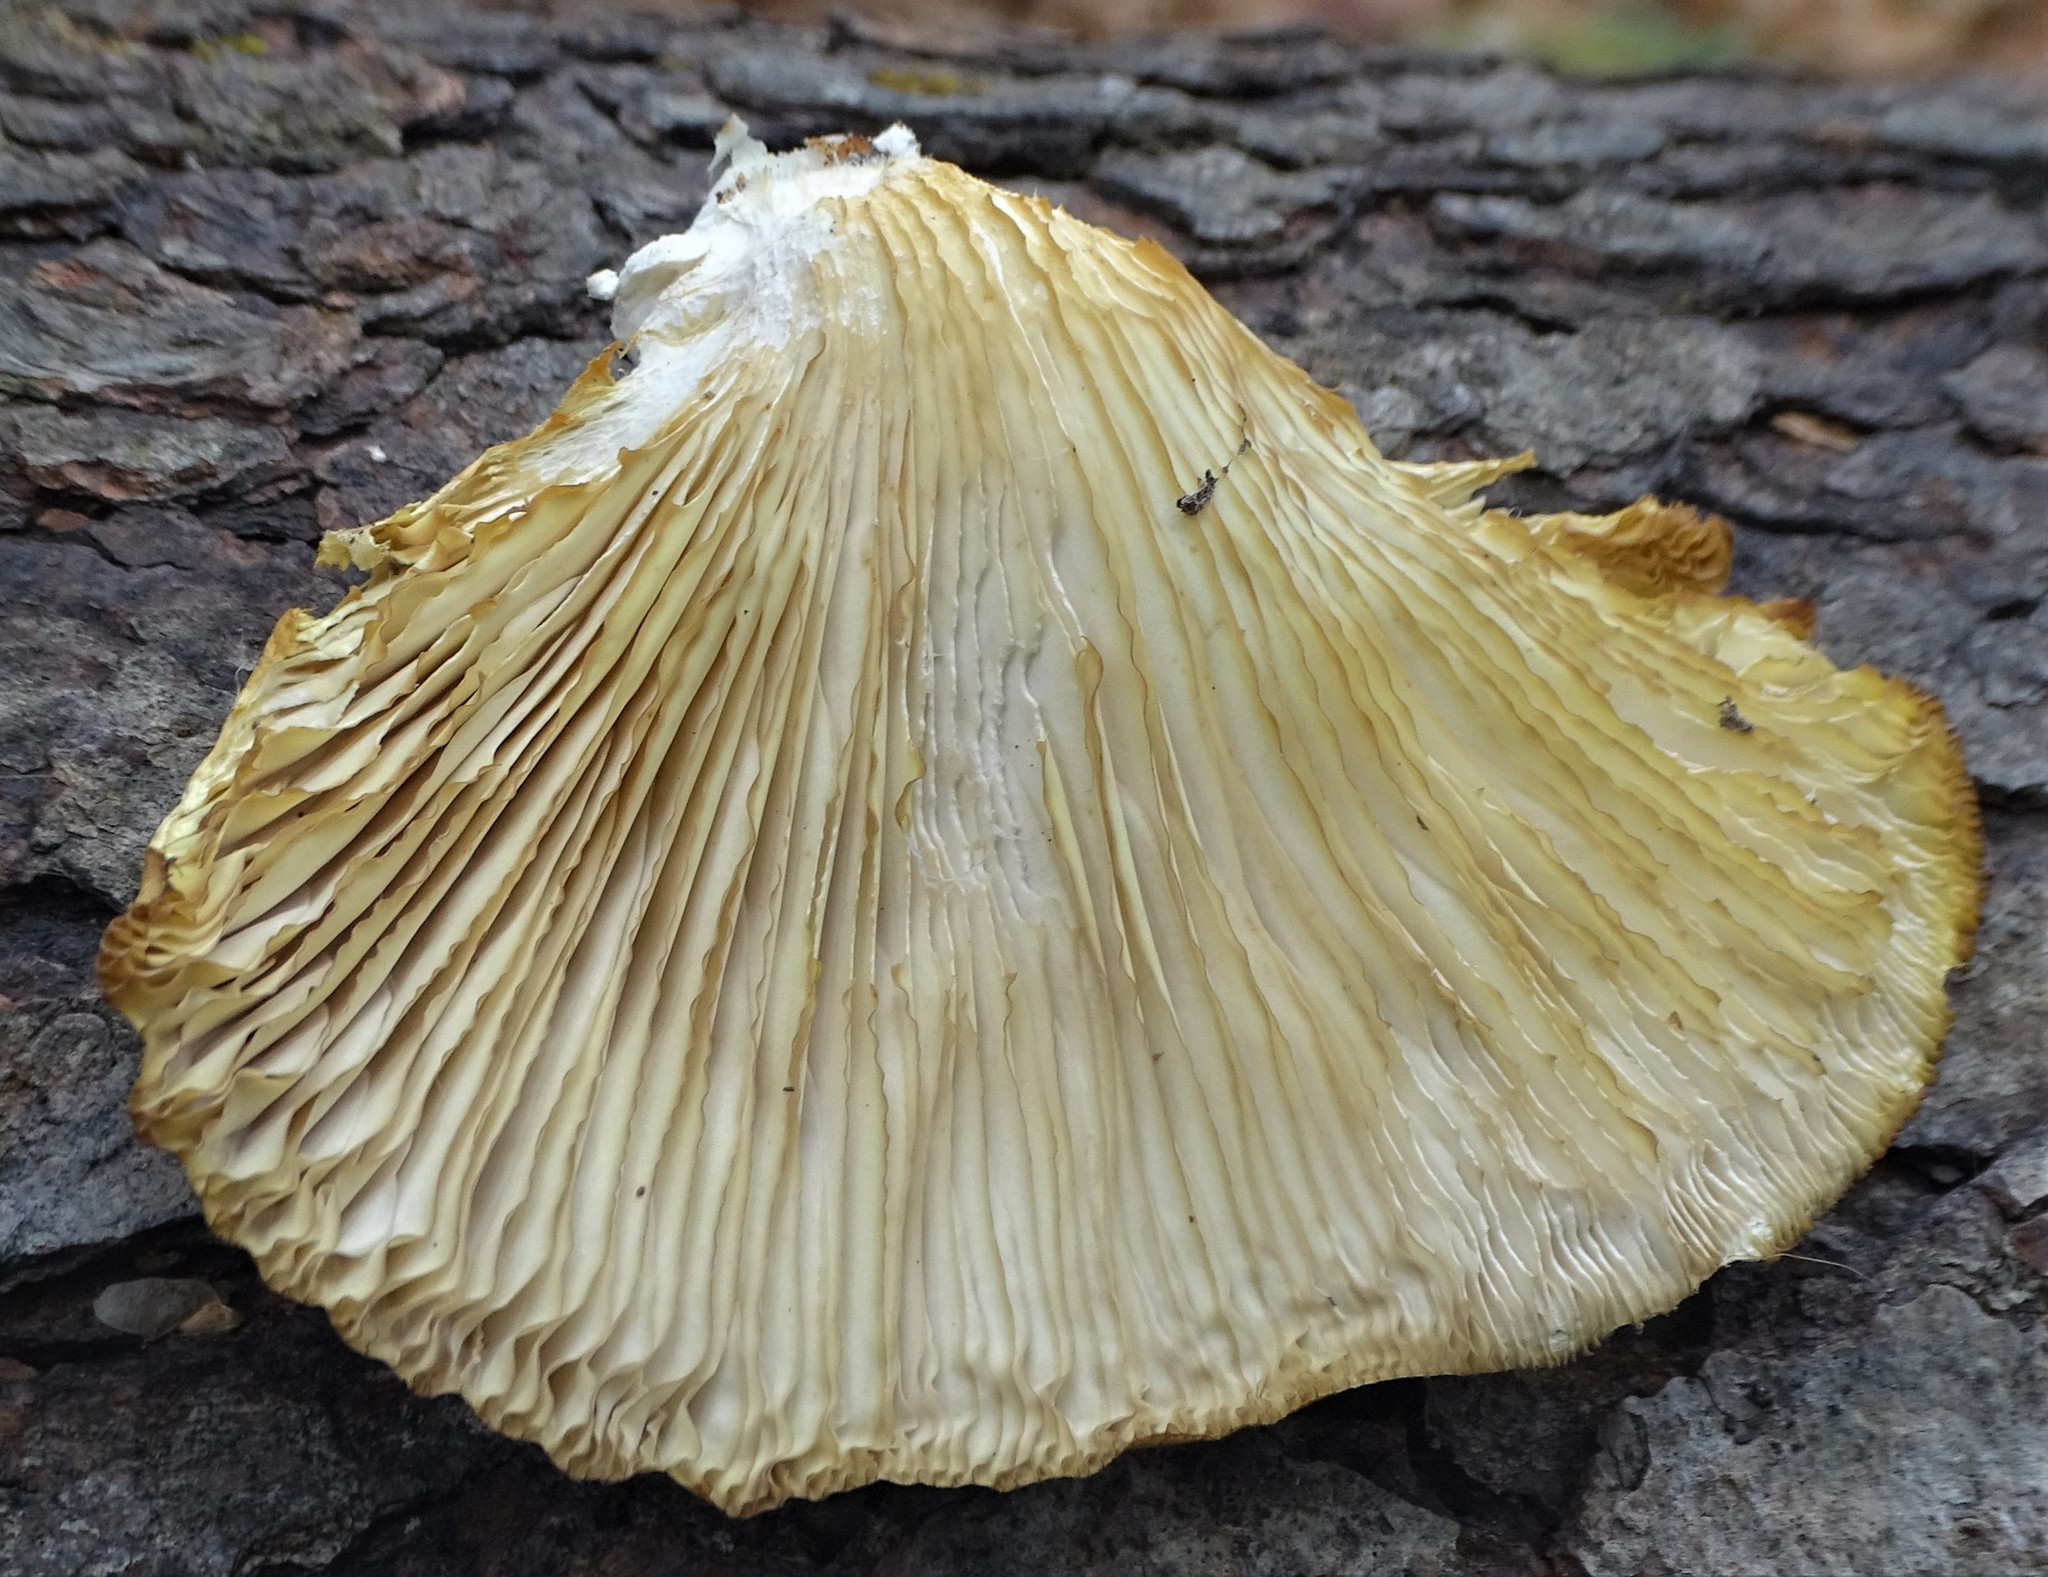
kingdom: Fungi
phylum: Basidiomycota
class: Agaricomycetes
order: Agaricales
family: Sarcomyxaceae
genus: Sarcomyxa
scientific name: Sarcomyxa serotina
